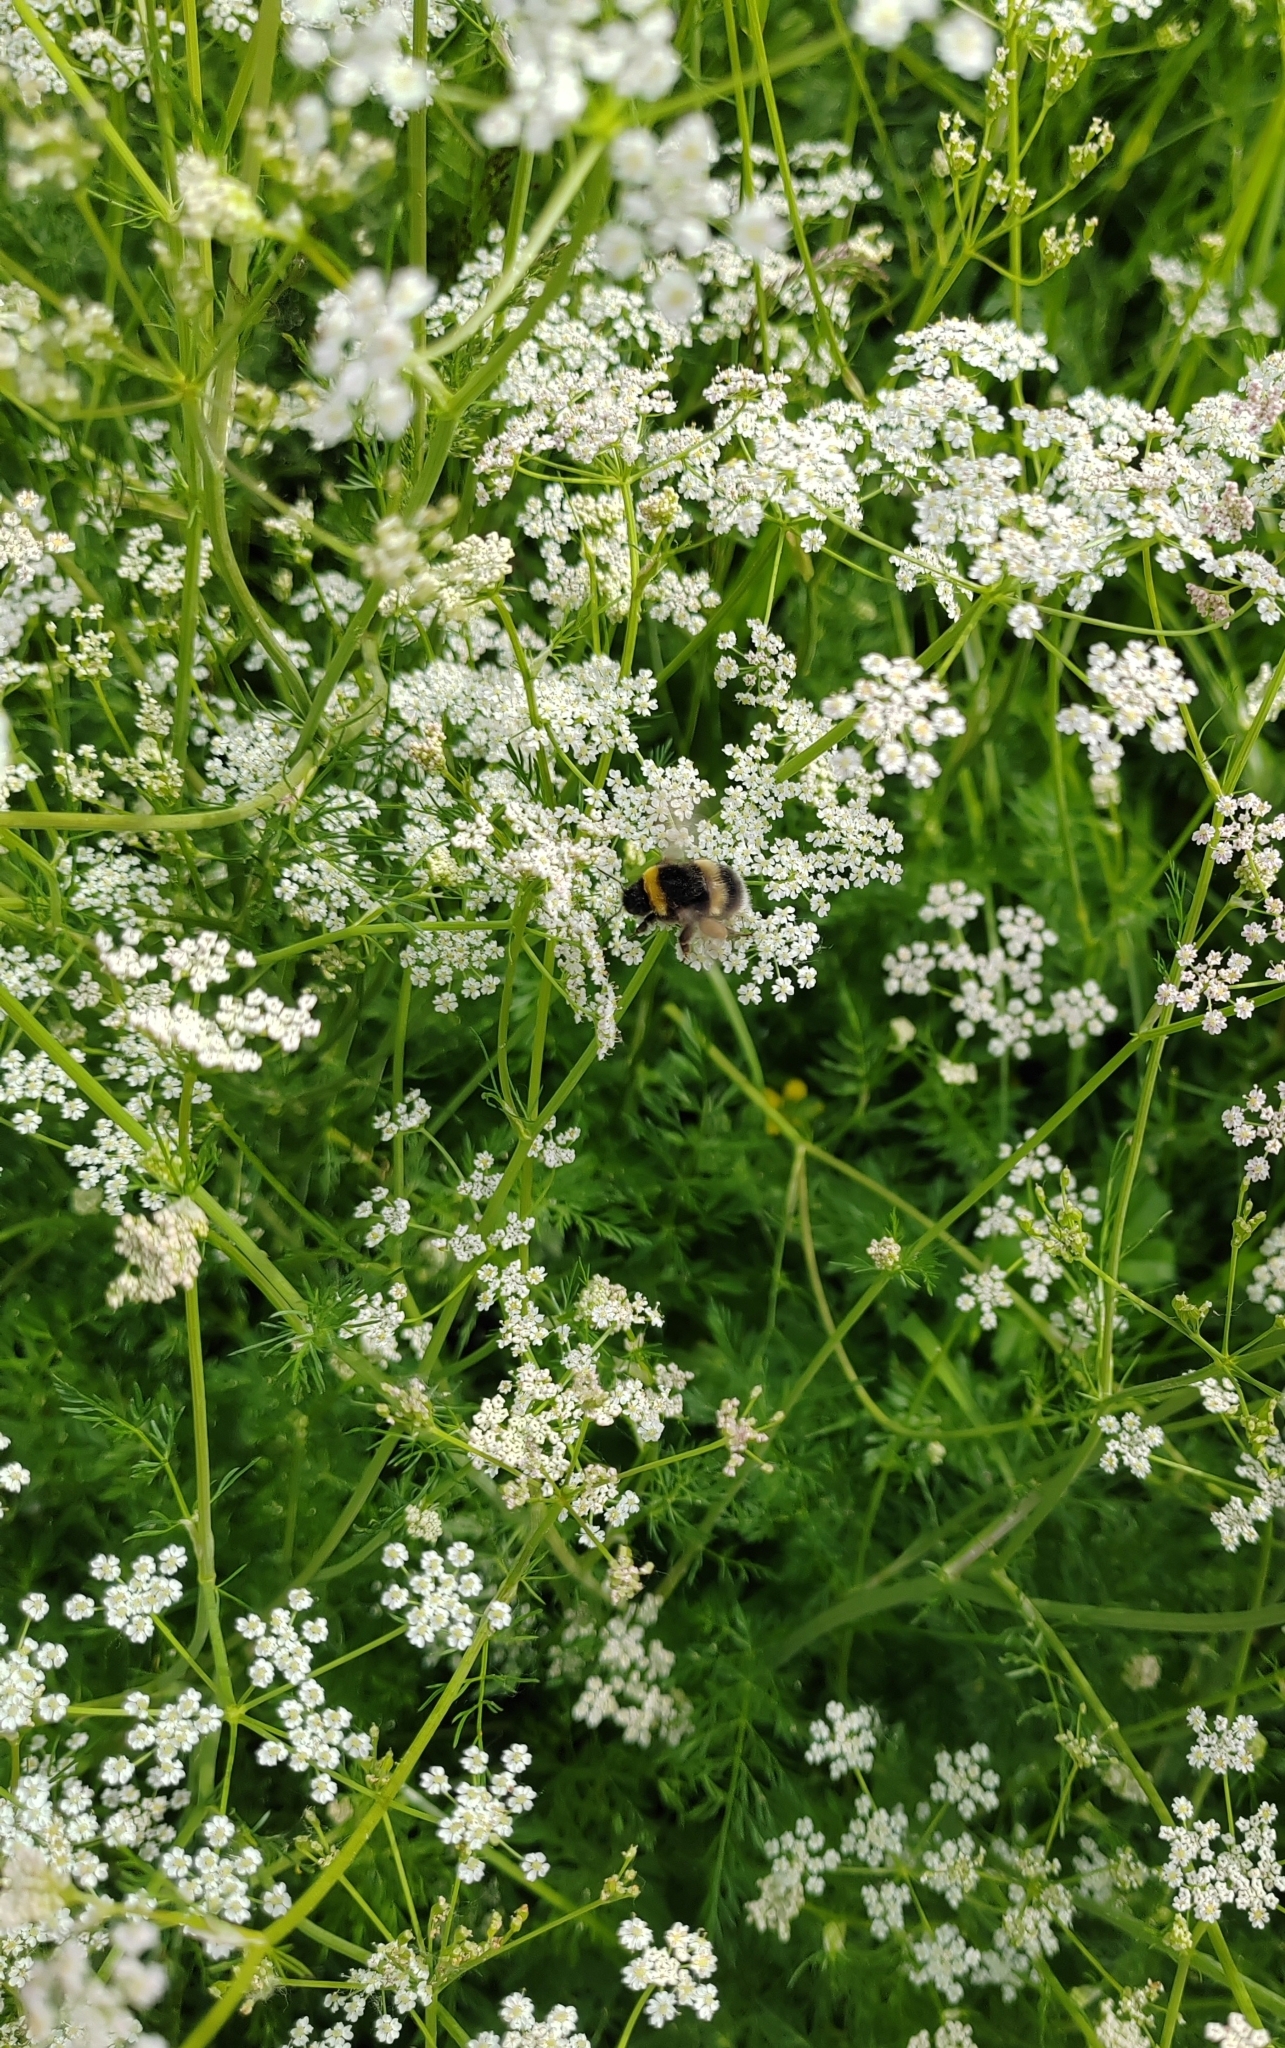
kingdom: Plantae
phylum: Tracheophyta
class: Magnoliopsida
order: Apiales
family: Apiaceae
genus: Carum
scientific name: Carum carvi
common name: Caraway
